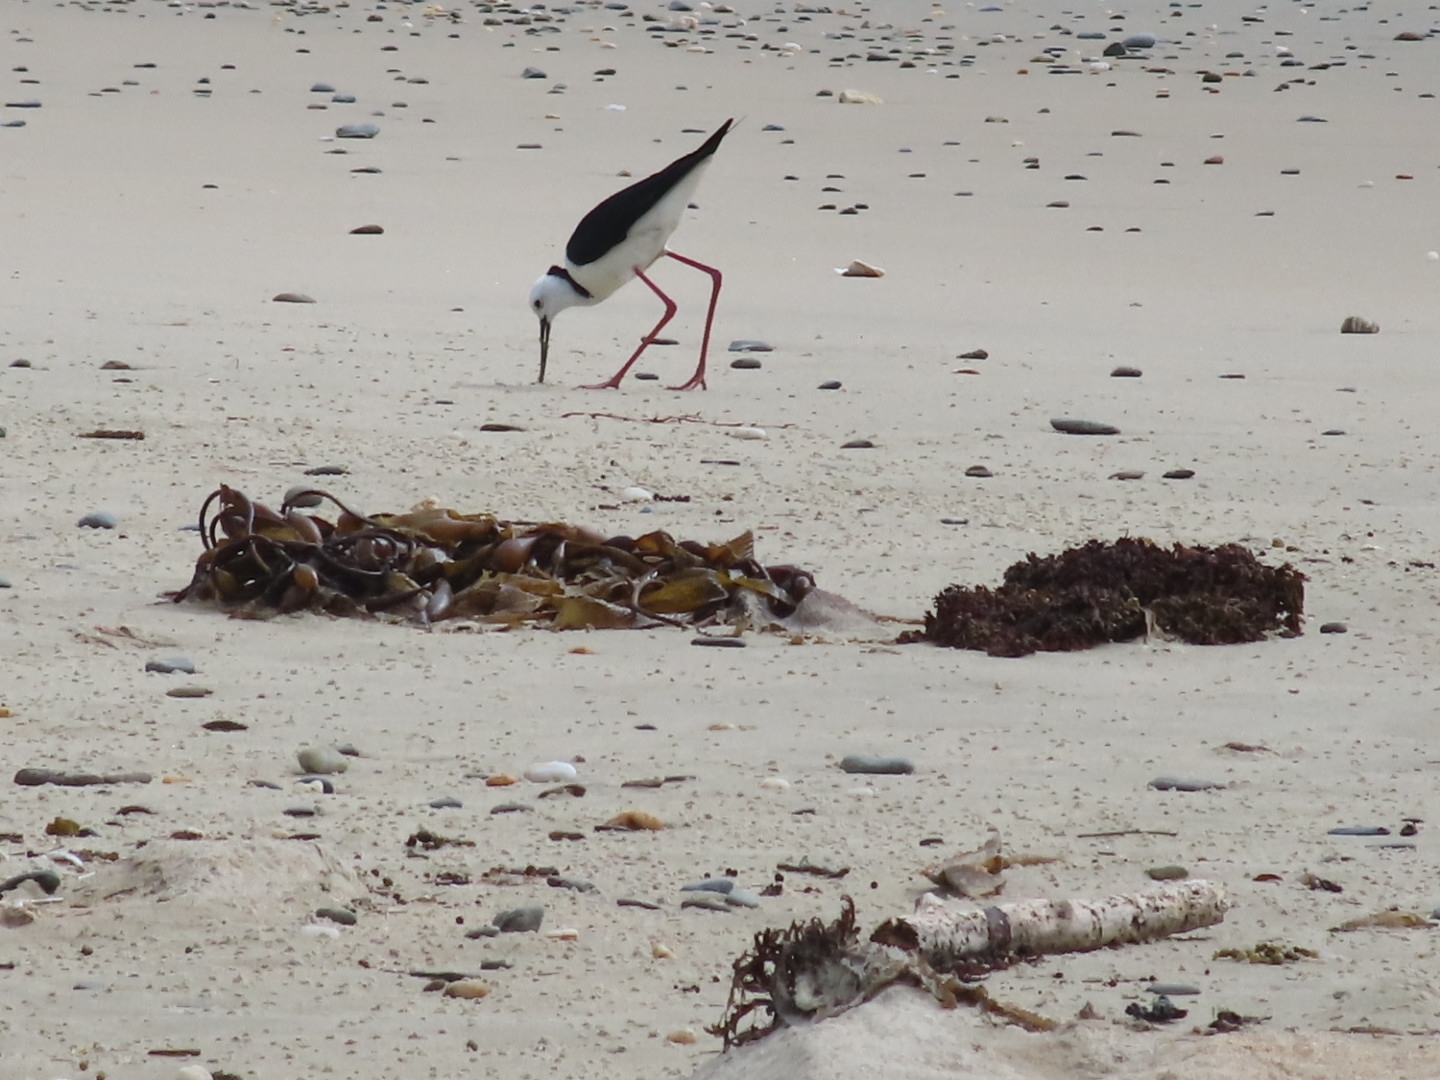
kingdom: Animalia
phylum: Chordata
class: Aves
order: Charadriiformes
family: Recurvirostridae
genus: Himantopus
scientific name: Himantopus leucocephalus
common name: White-headed stilt
